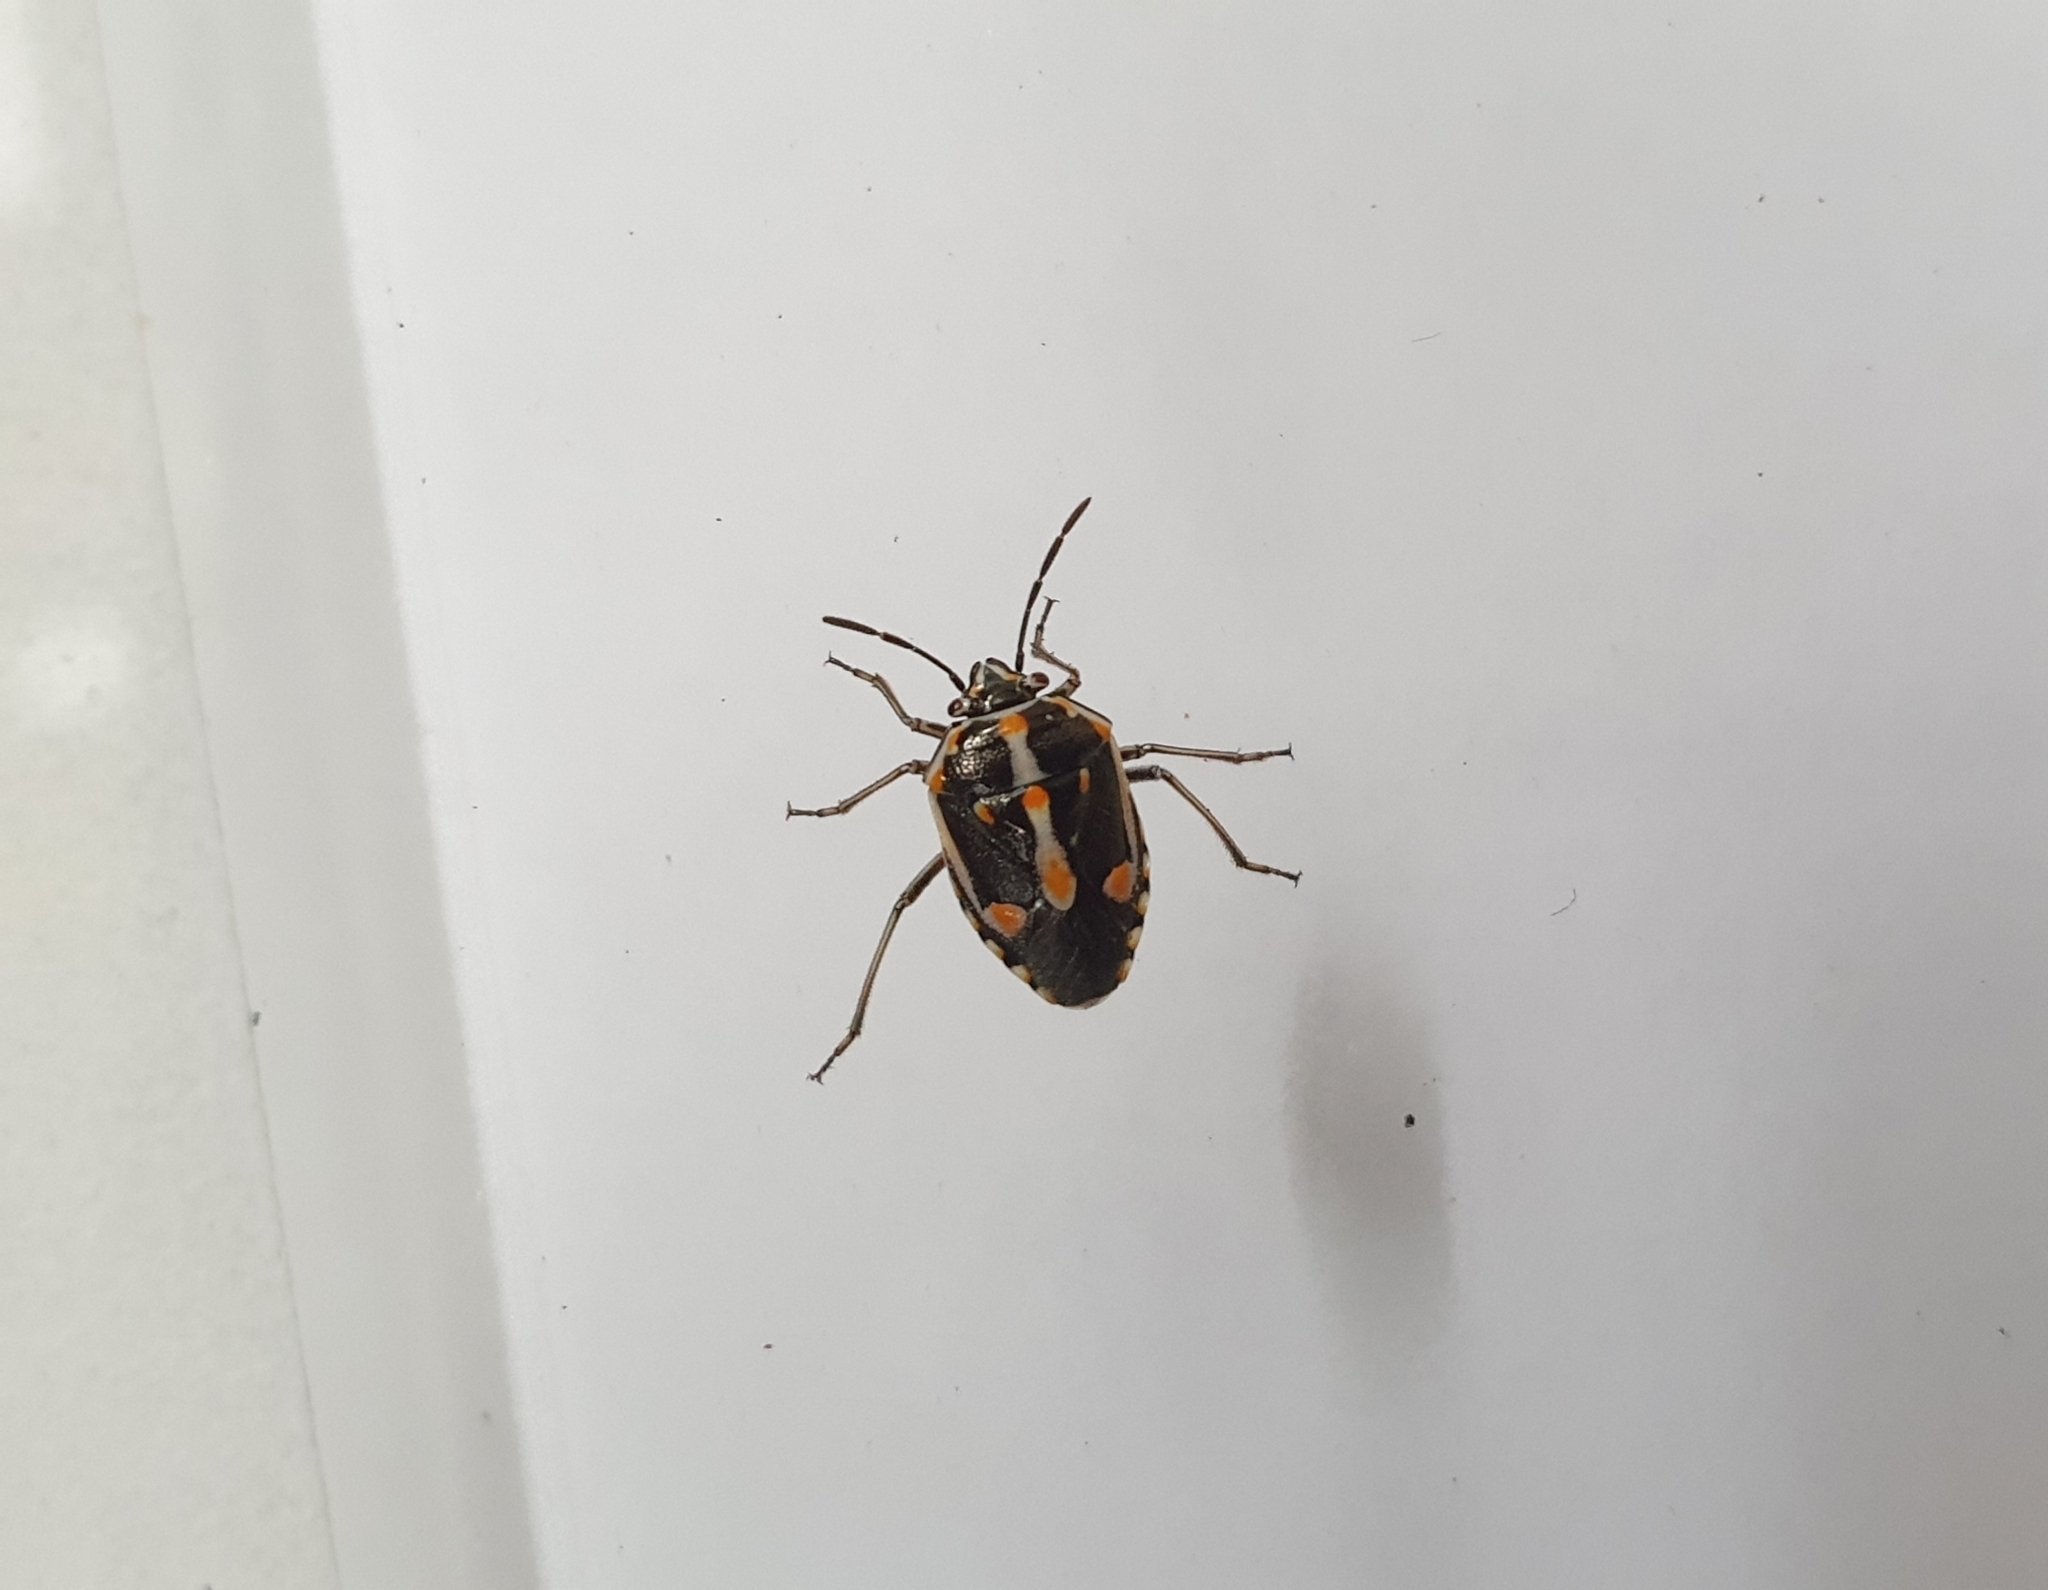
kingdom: Animalia
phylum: Arthropoda
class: Insecta
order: Hemiptera
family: Pentatomidae
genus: Bagrada
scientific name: Bagrada hilaris
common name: Bagrada bug
